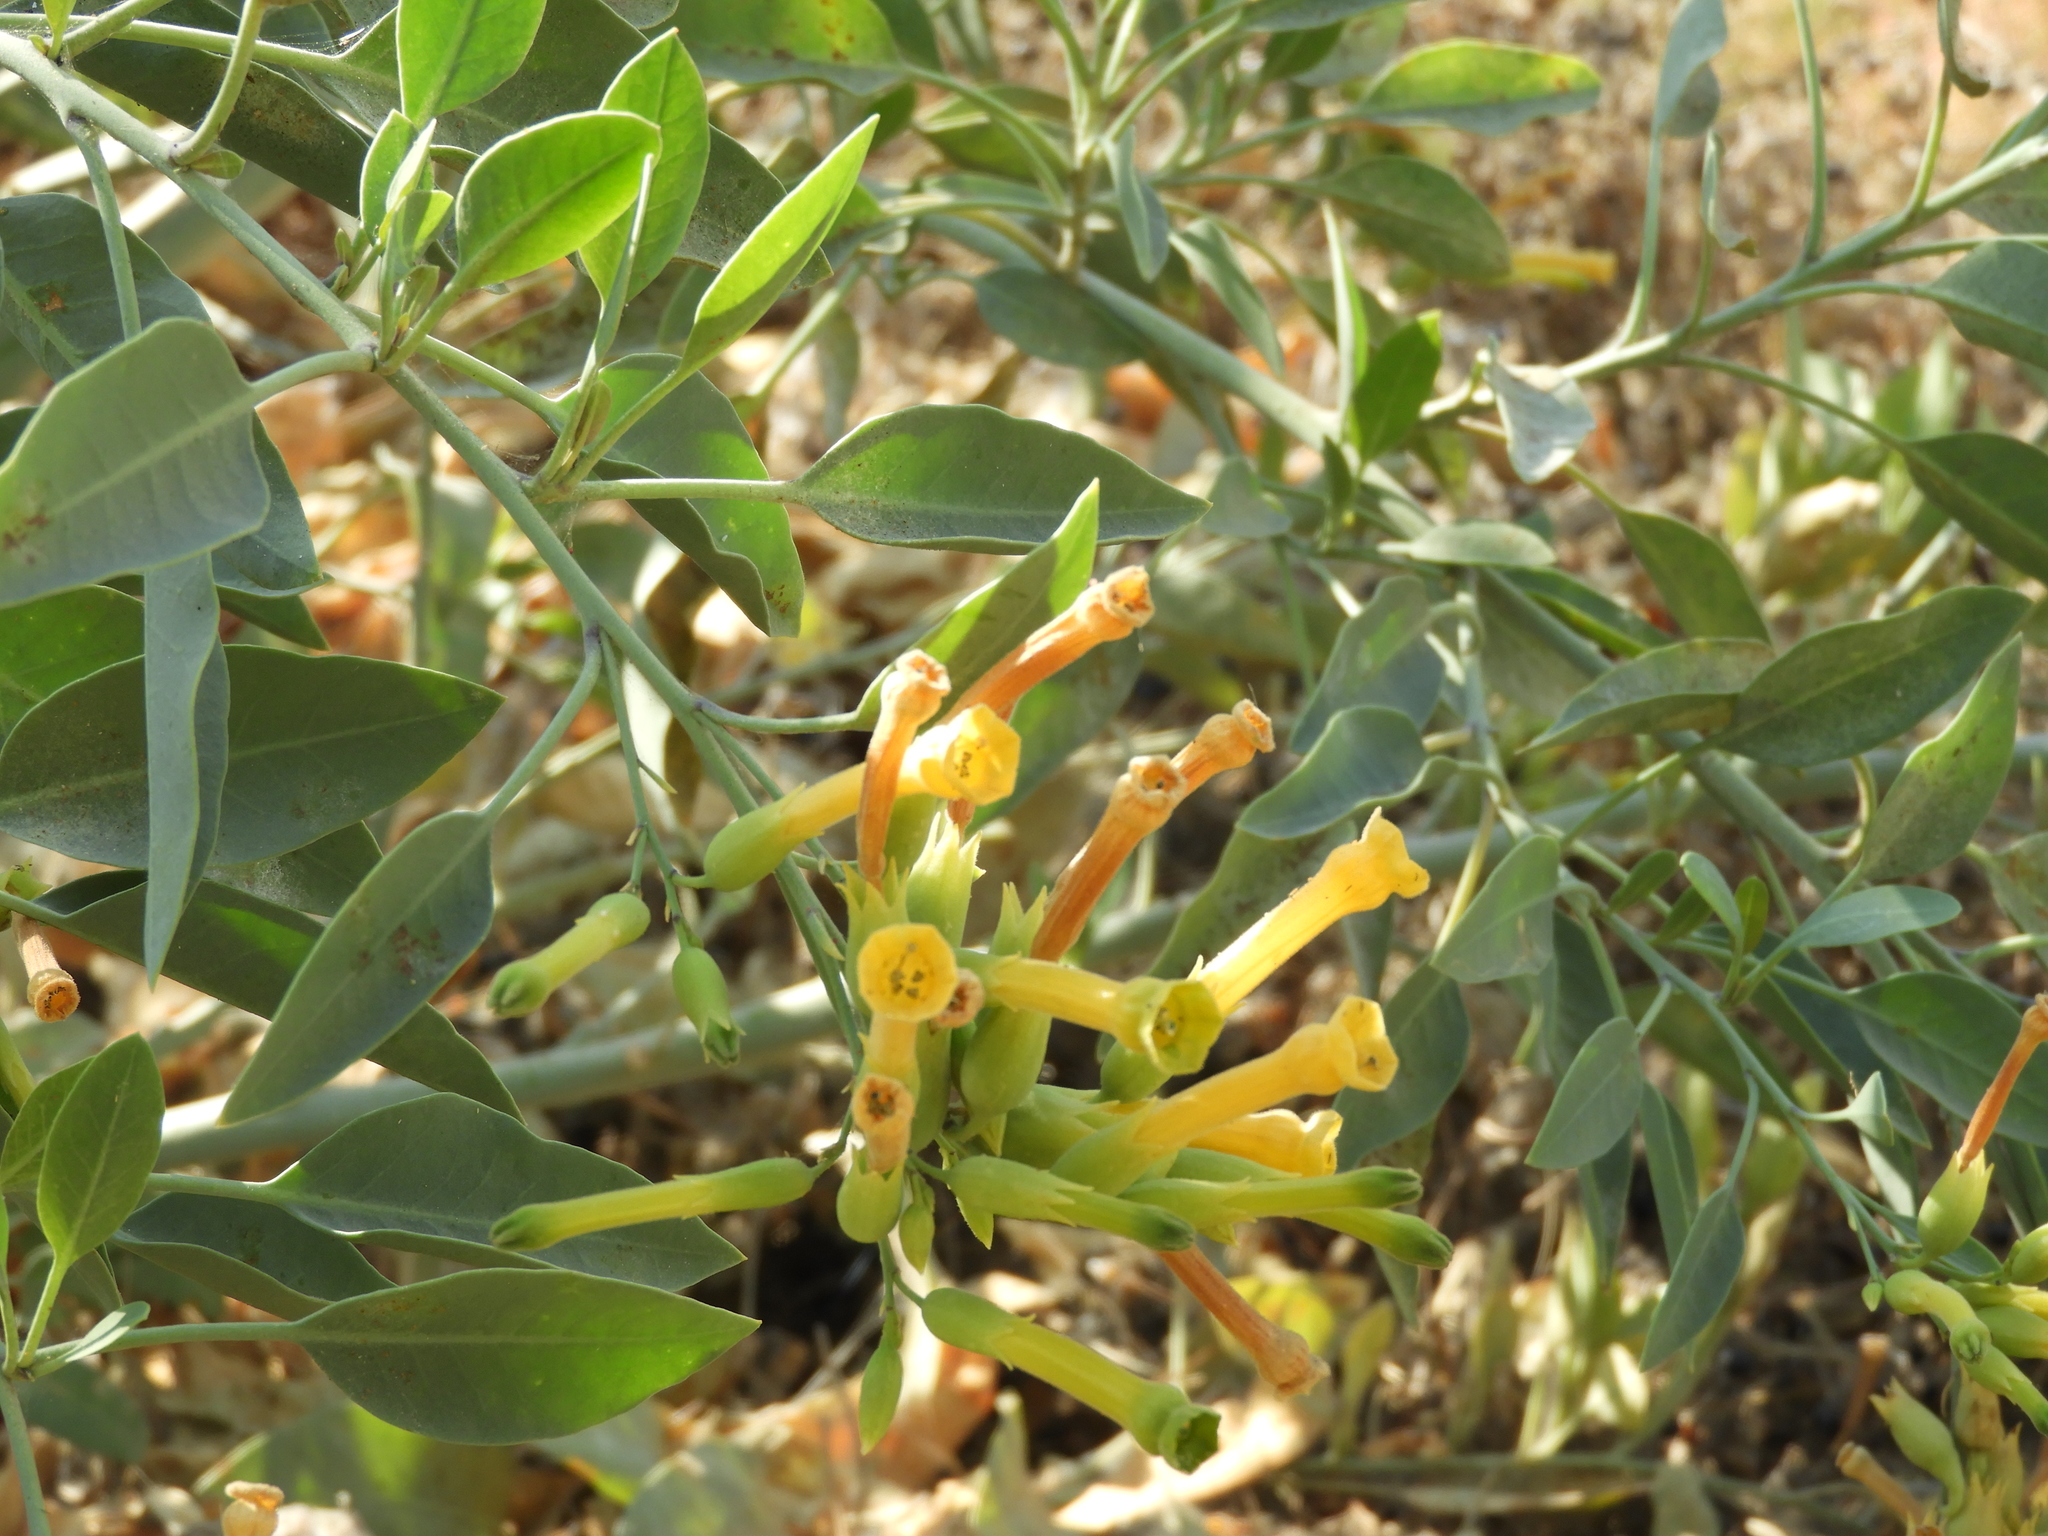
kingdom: Plantae
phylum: Tracheophyta
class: Magnoliopsida
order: Solanales
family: Solanaceae
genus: Nicotiana
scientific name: Nicotiana glauca
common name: Tree tobacco
